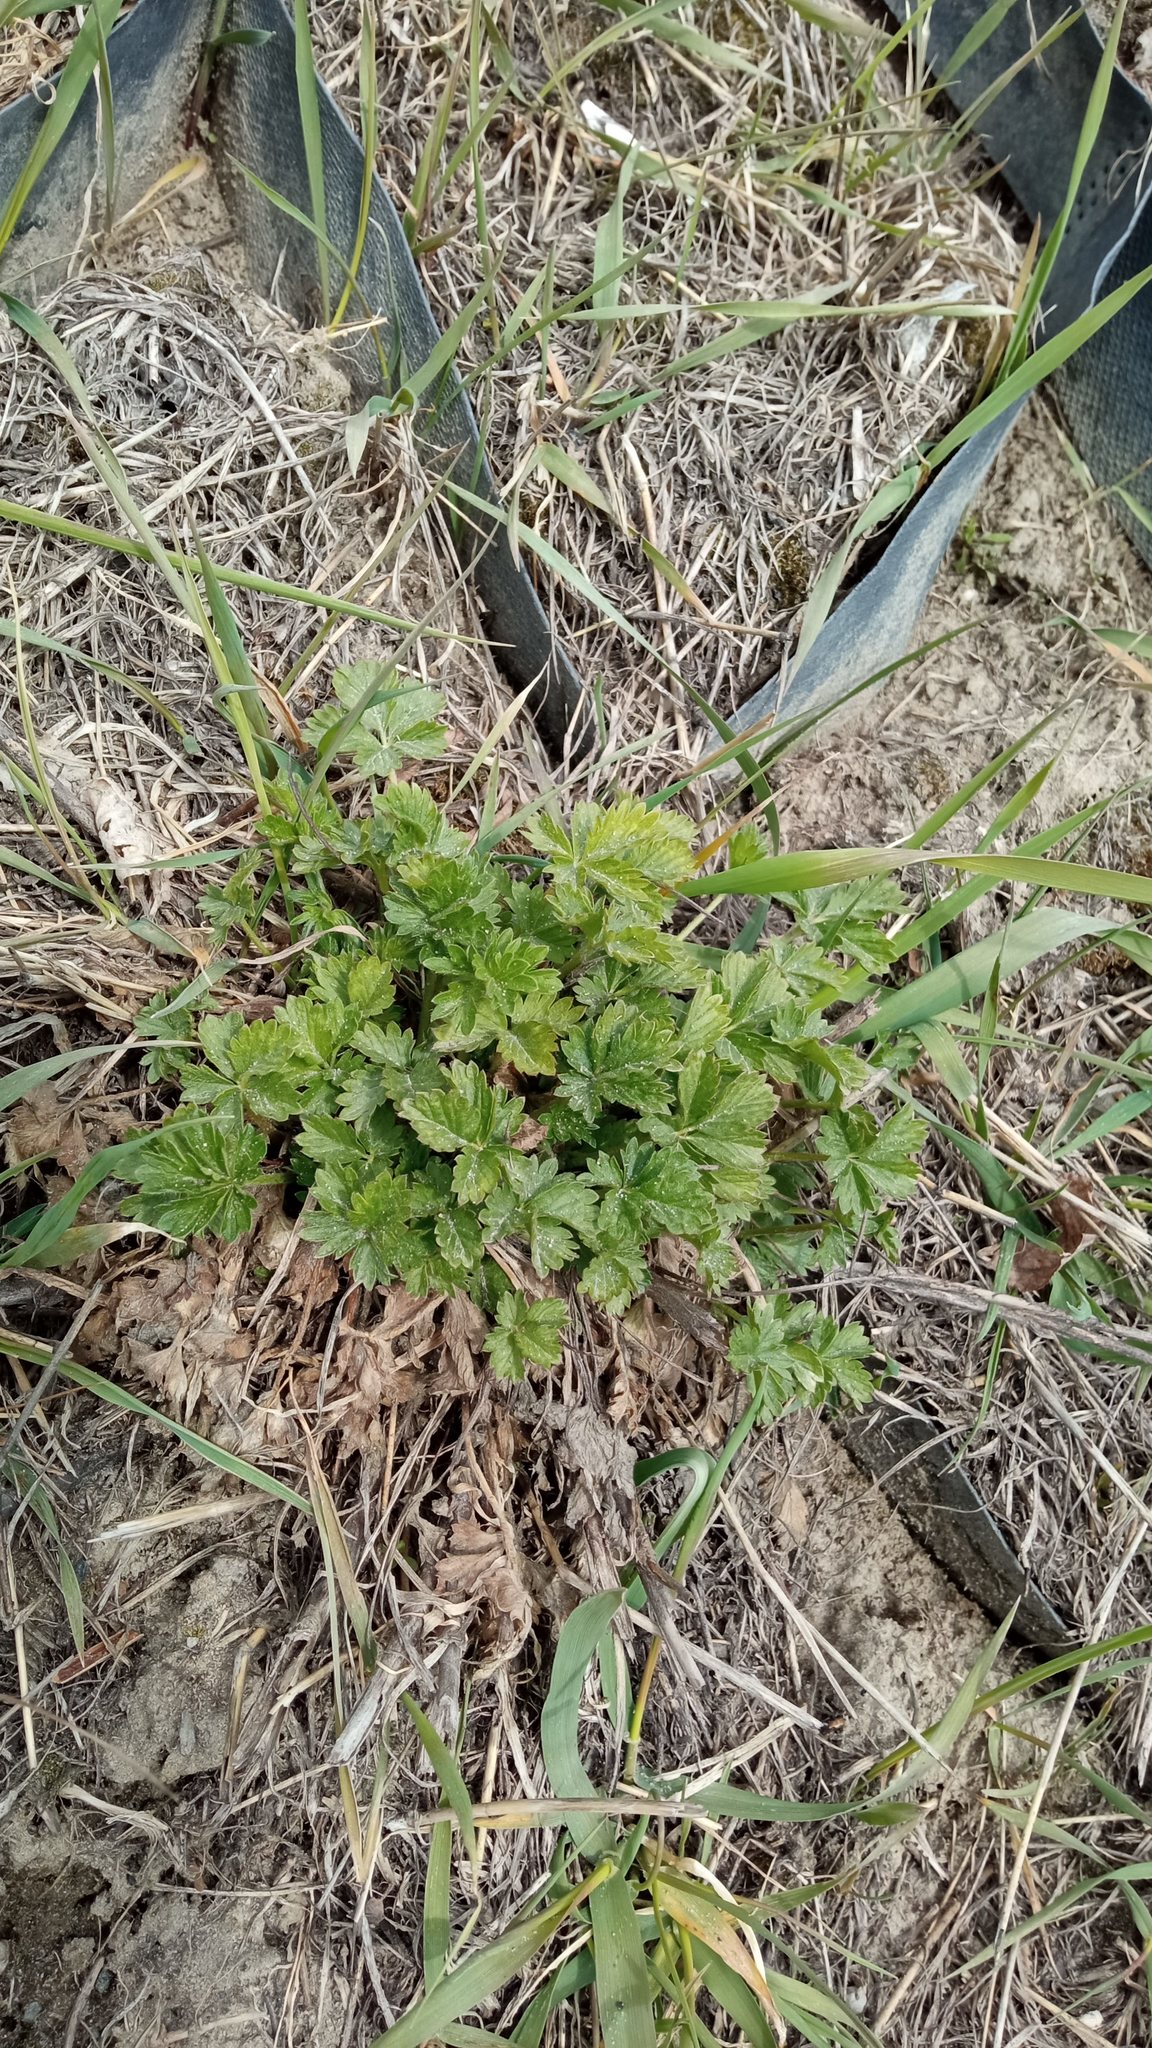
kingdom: Plantae
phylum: Tracheophyta
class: Magnoliopsida
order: Rosales
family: Rosaceae
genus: Potentilla
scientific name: Potentilla intermedia
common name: Downy cinquefoil
